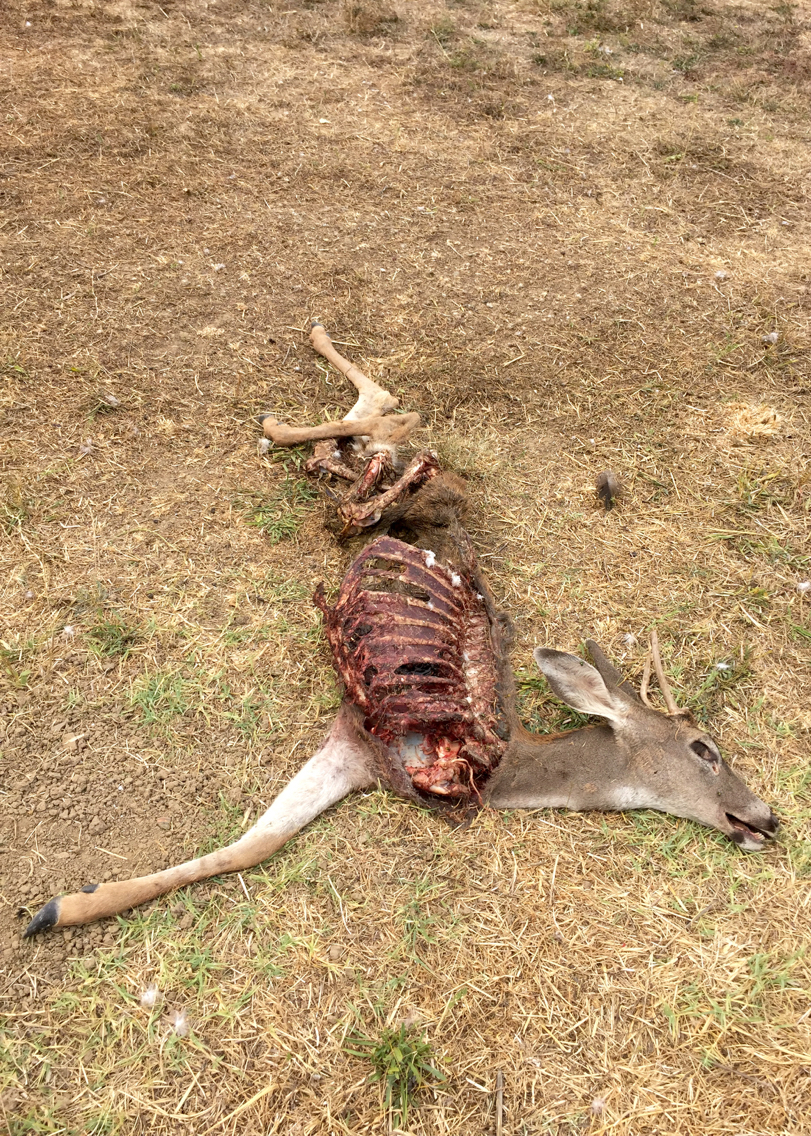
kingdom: Animalia
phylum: Chordata
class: Mammalia
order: Artiodactyla
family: Cervidae
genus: Odocoileus
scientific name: Odocoileus hemionus
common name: Mule deer
